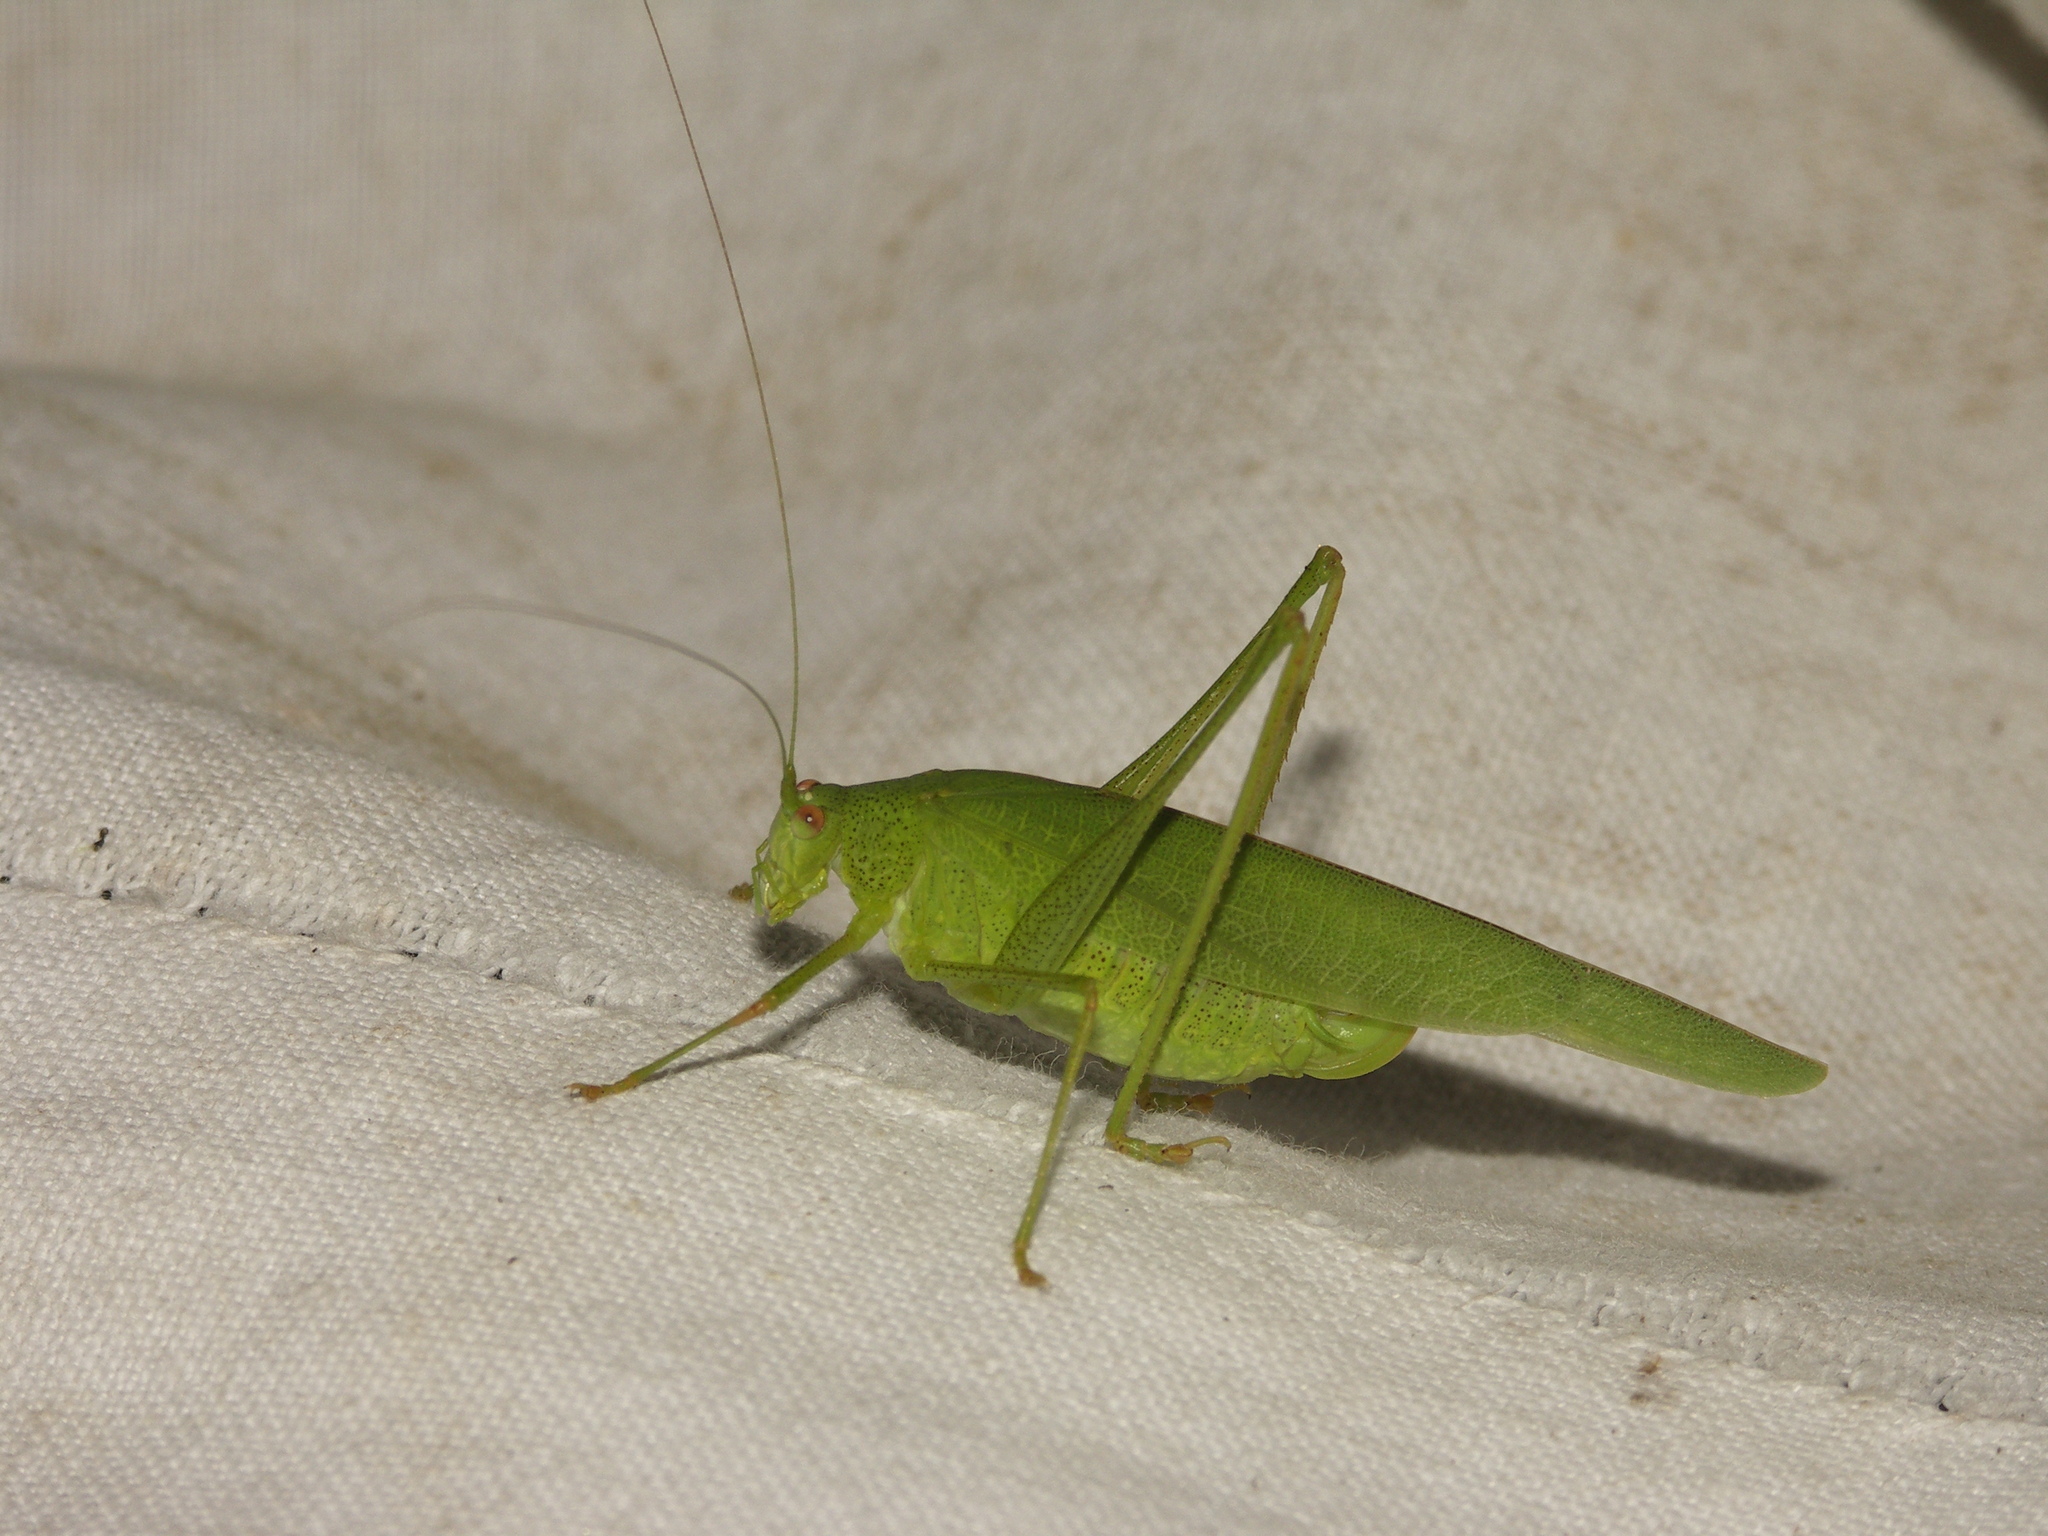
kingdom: Animalia
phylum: Arthropoda
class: Insecta
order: Orthoptera
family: Tettigoniidae
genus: Phaneroptera
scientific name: Phaneroptera nana
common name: Southern sickle bush-cricket
